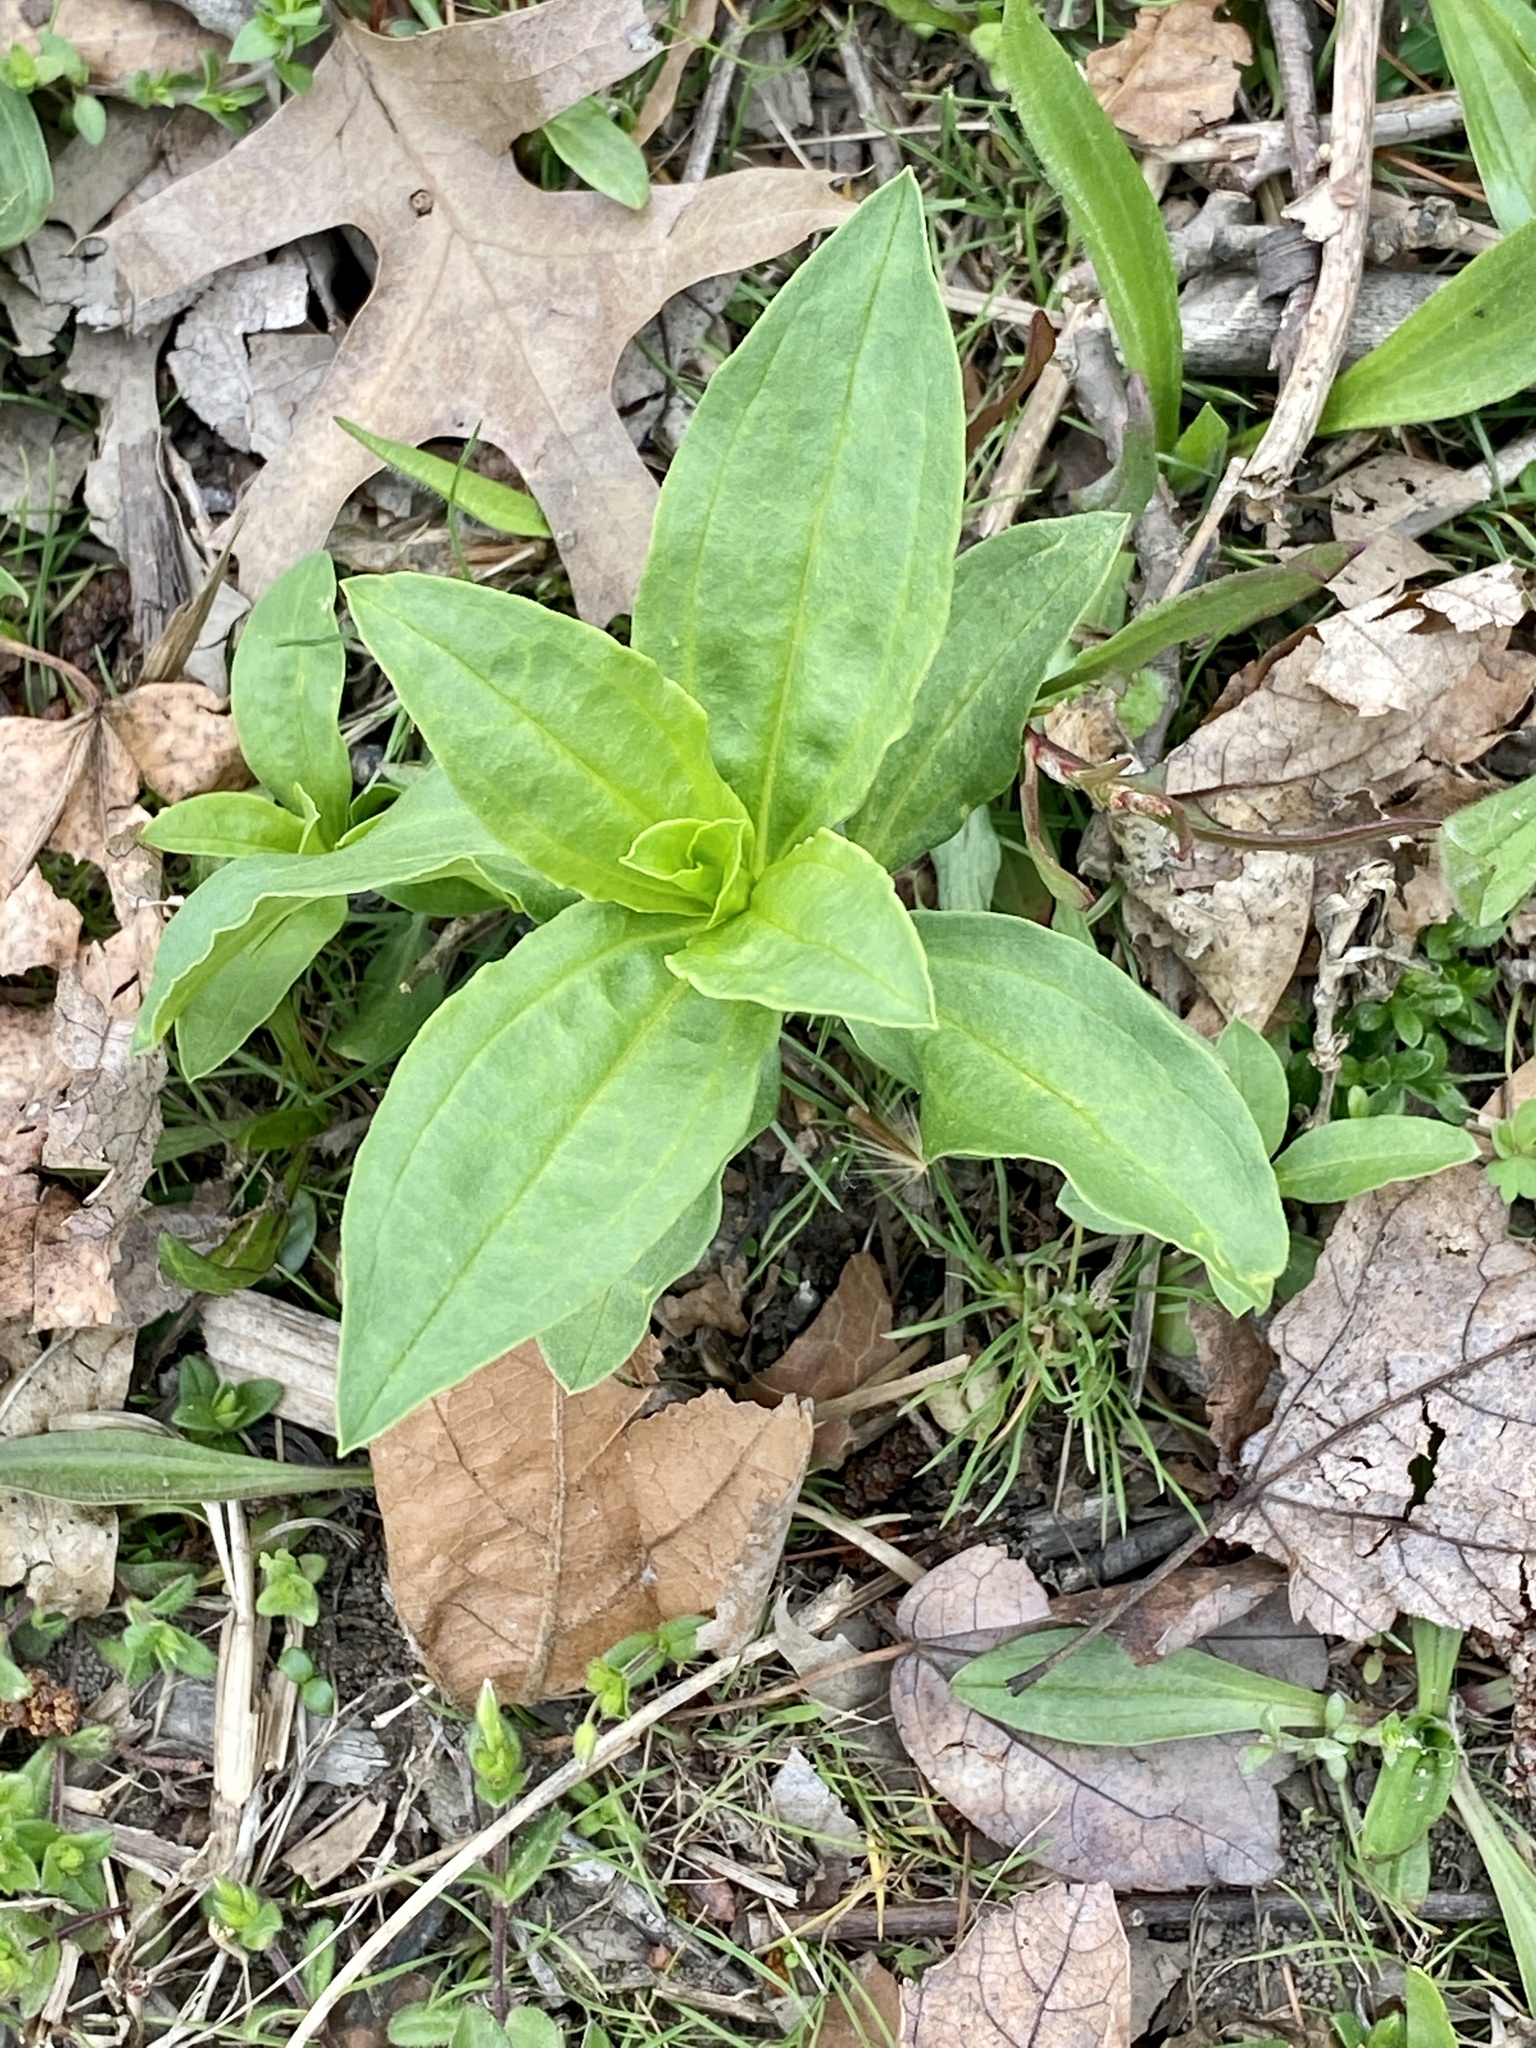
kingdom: Plantae
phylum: Tracheophyta
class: Magnoliopsida
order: Caryophyllales
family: Caryophyllaceae
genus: Saponaria
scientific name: Saponaria officinalis
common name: Soapwort
